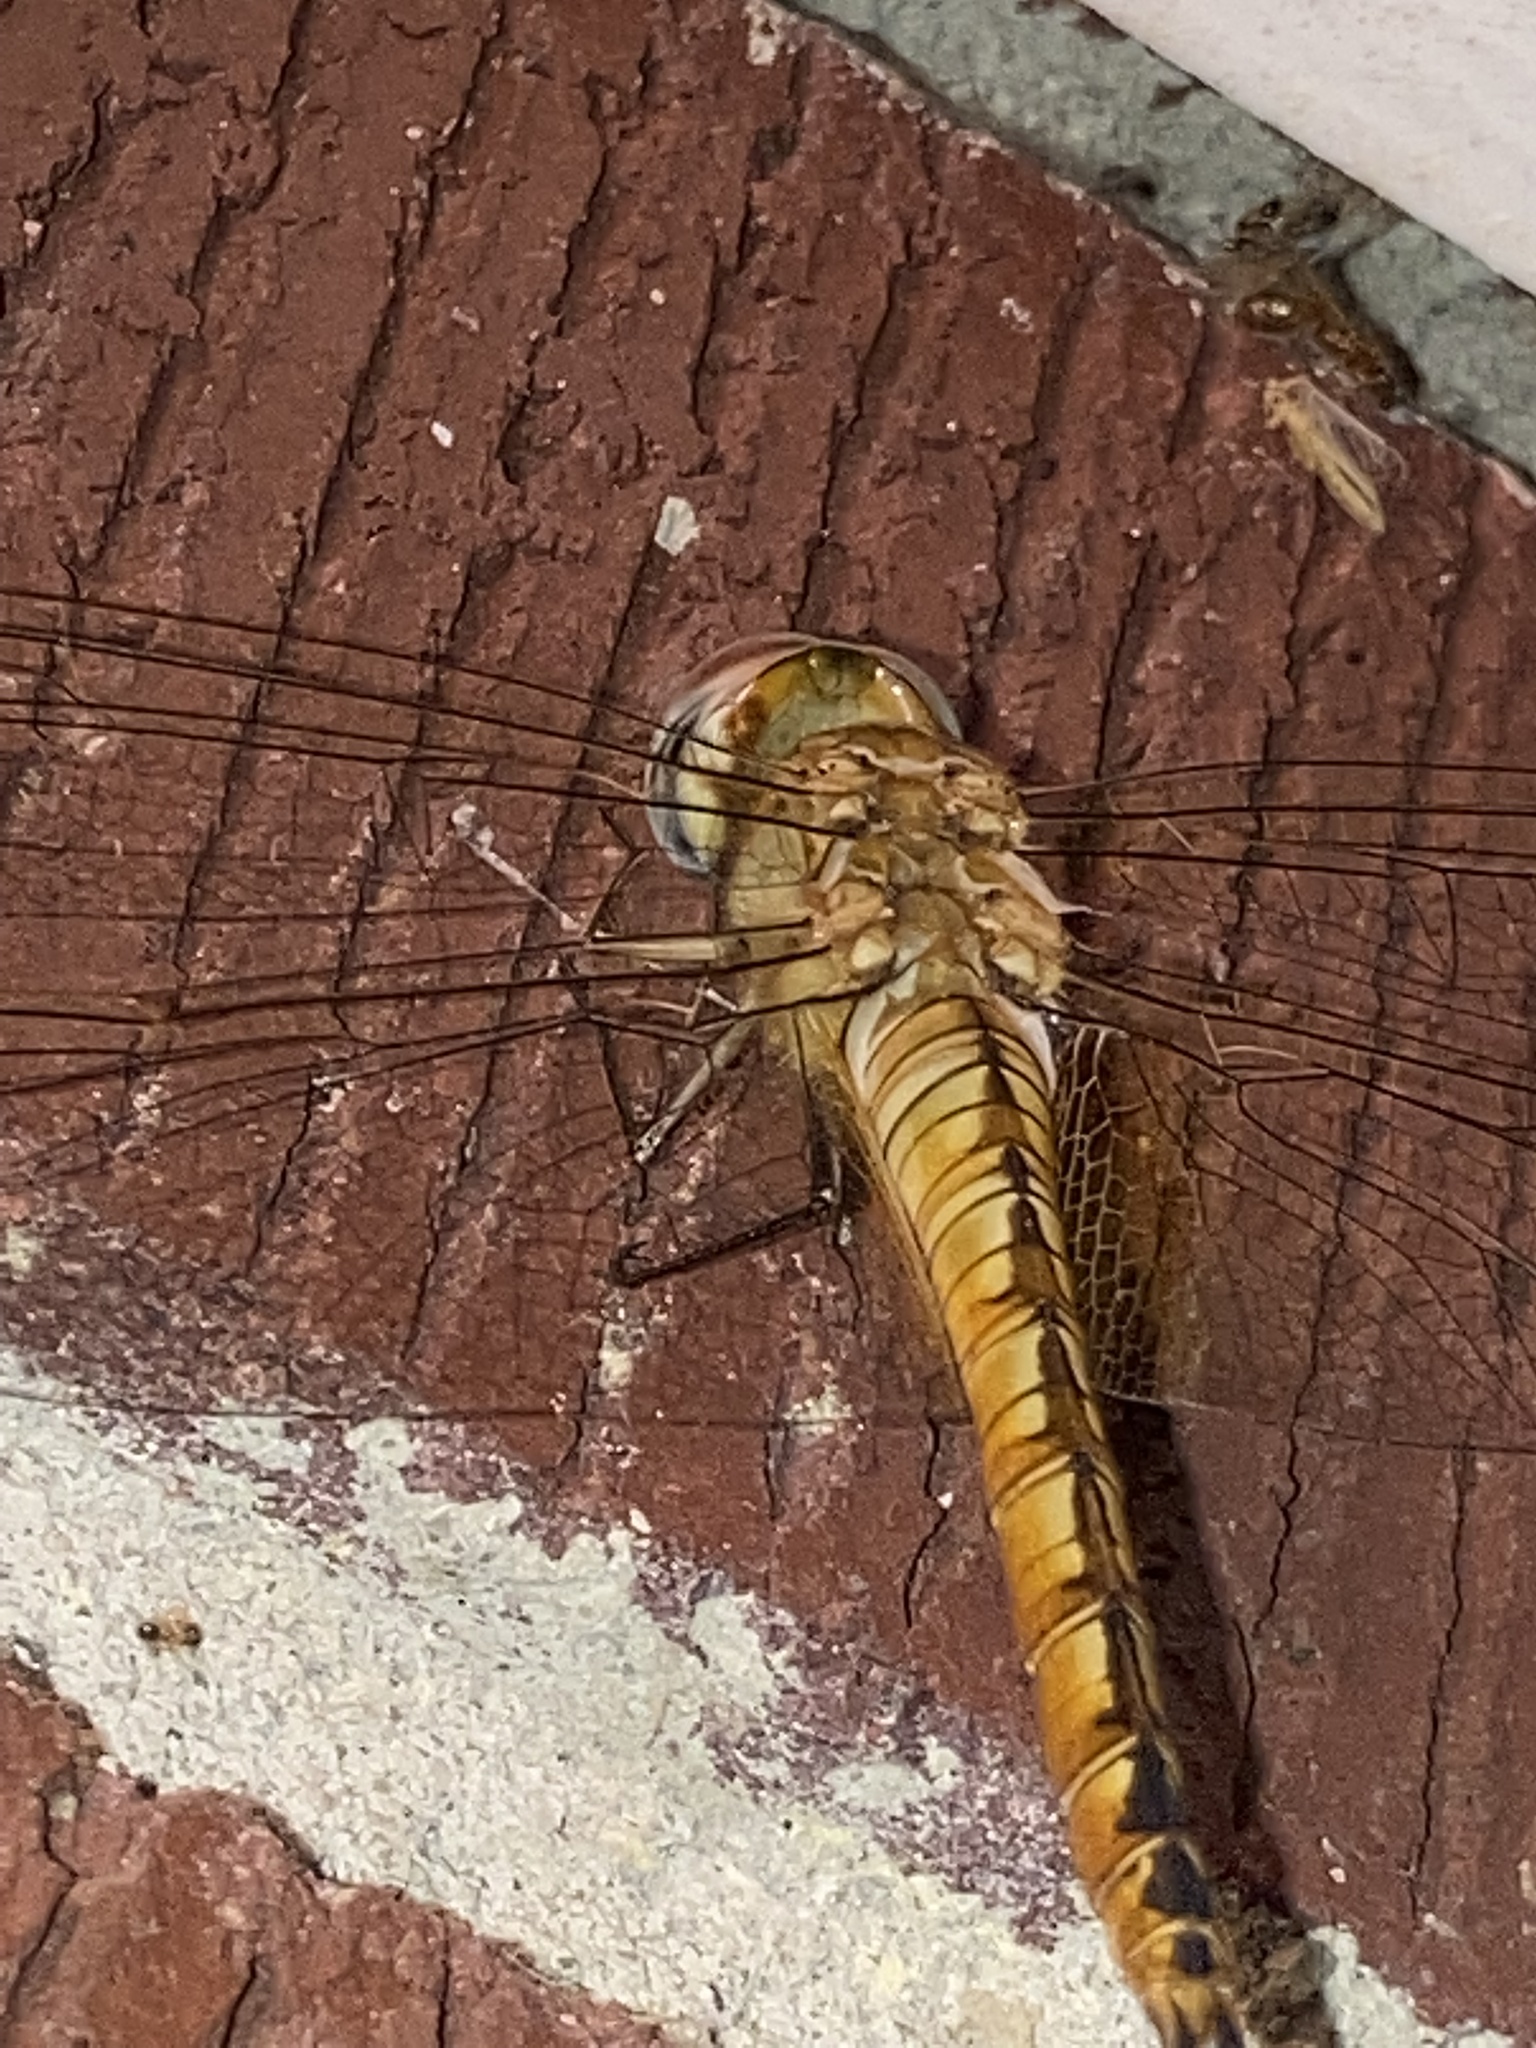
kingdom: Animalia
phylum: Arthropoda
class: Insecta
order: Odonata
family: Libellulidae
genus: Pantala
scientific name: Pantala flavescens
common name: Wandering glider
